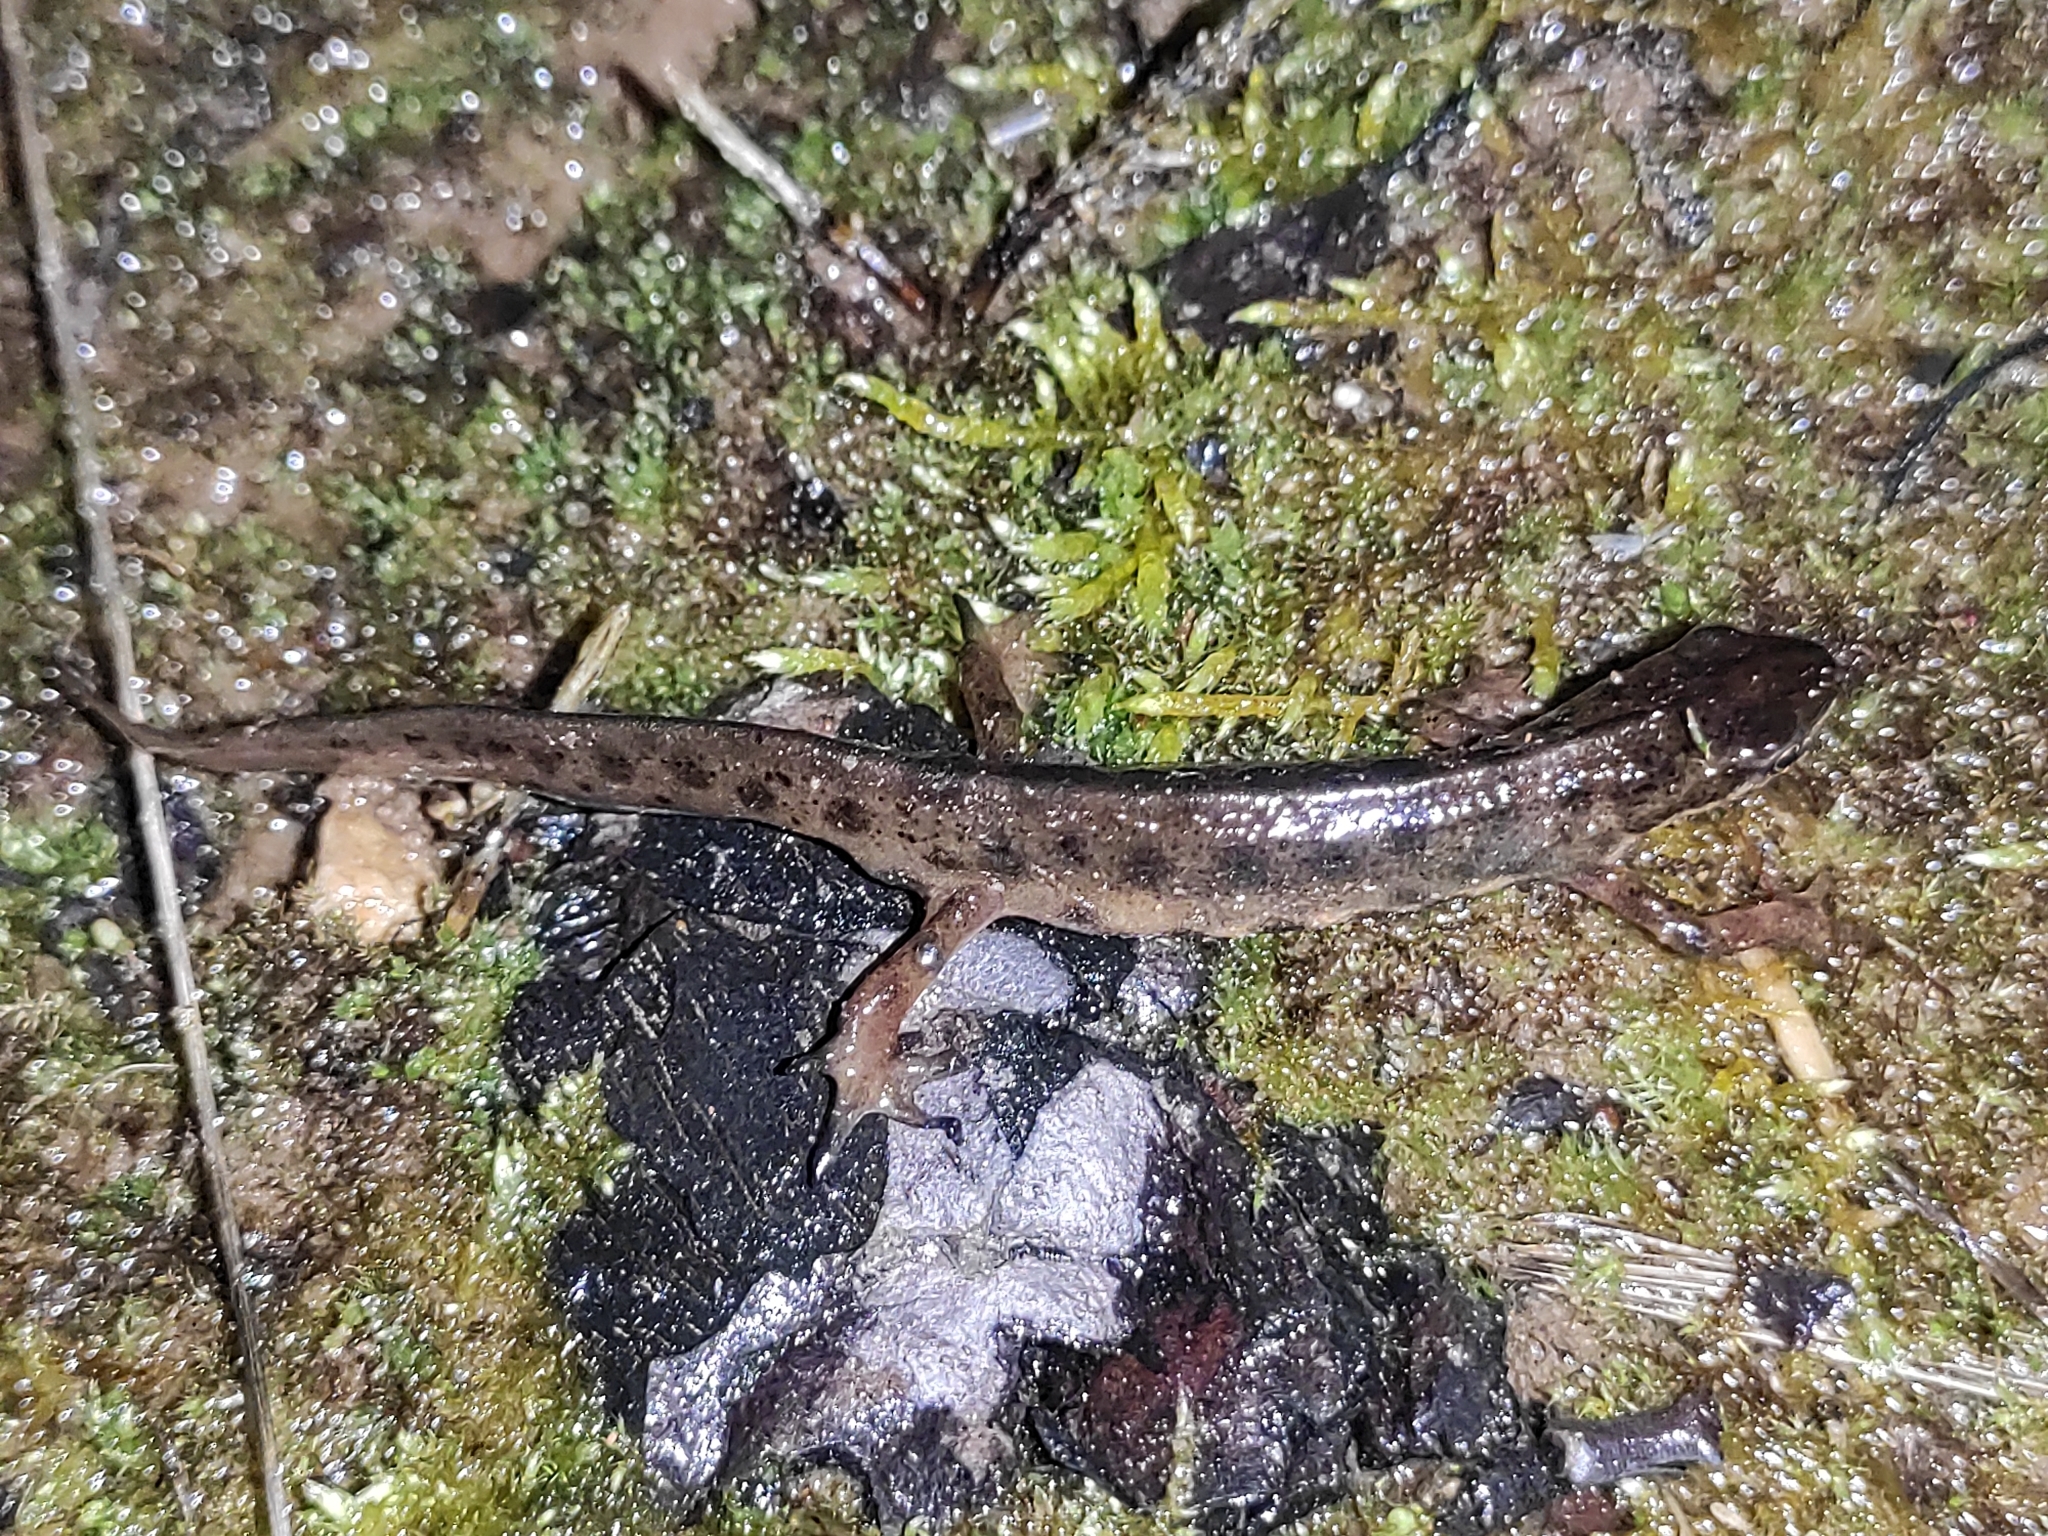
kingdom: Animalia
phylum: Chordata
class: Amphibia
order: Caudata
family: Salamandridae
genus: Lissotriton
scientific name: Lissotriton vulgaris
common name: Smooth newt
